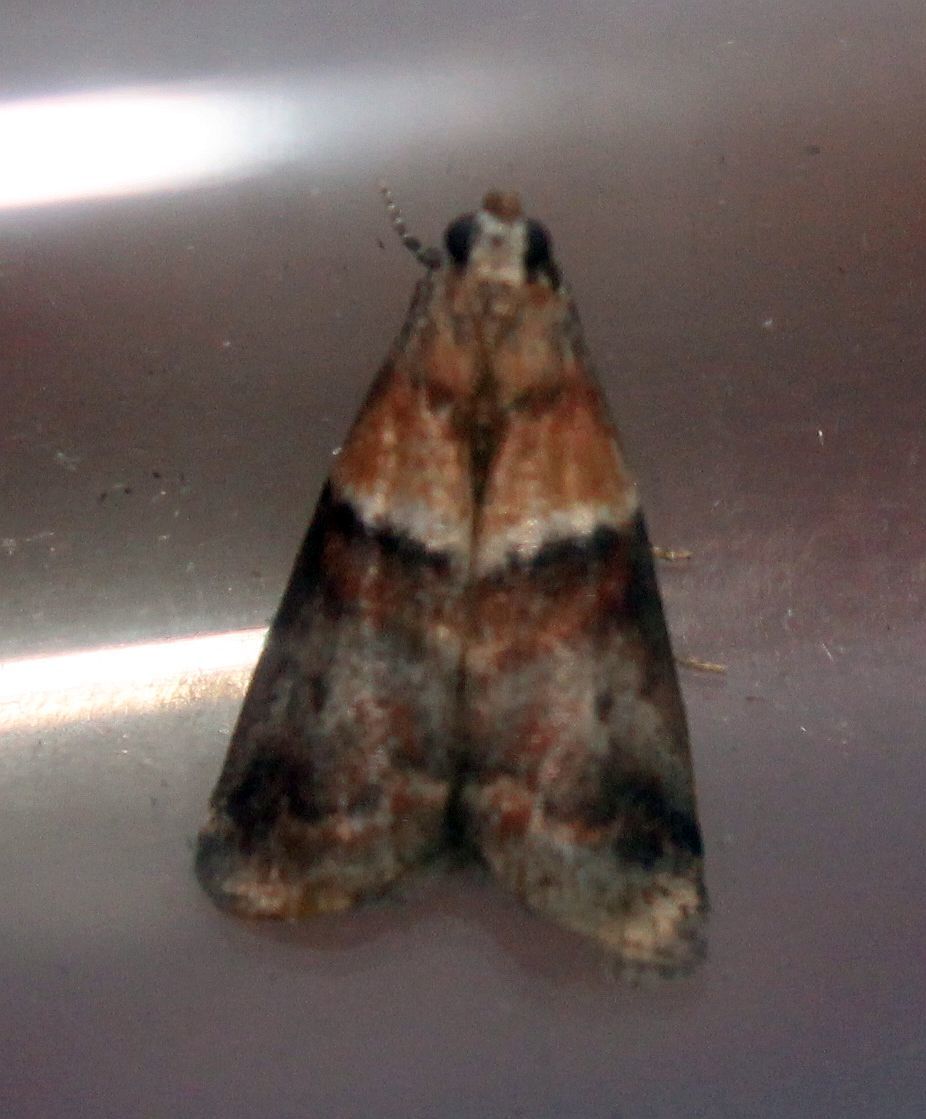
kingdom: Animalia
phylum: Arthropoda
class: Insecta
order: Lepidoptera
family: Pyralidae
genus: Acrobasis
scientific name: Acrobasis repandana
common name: Warted knot-horn
